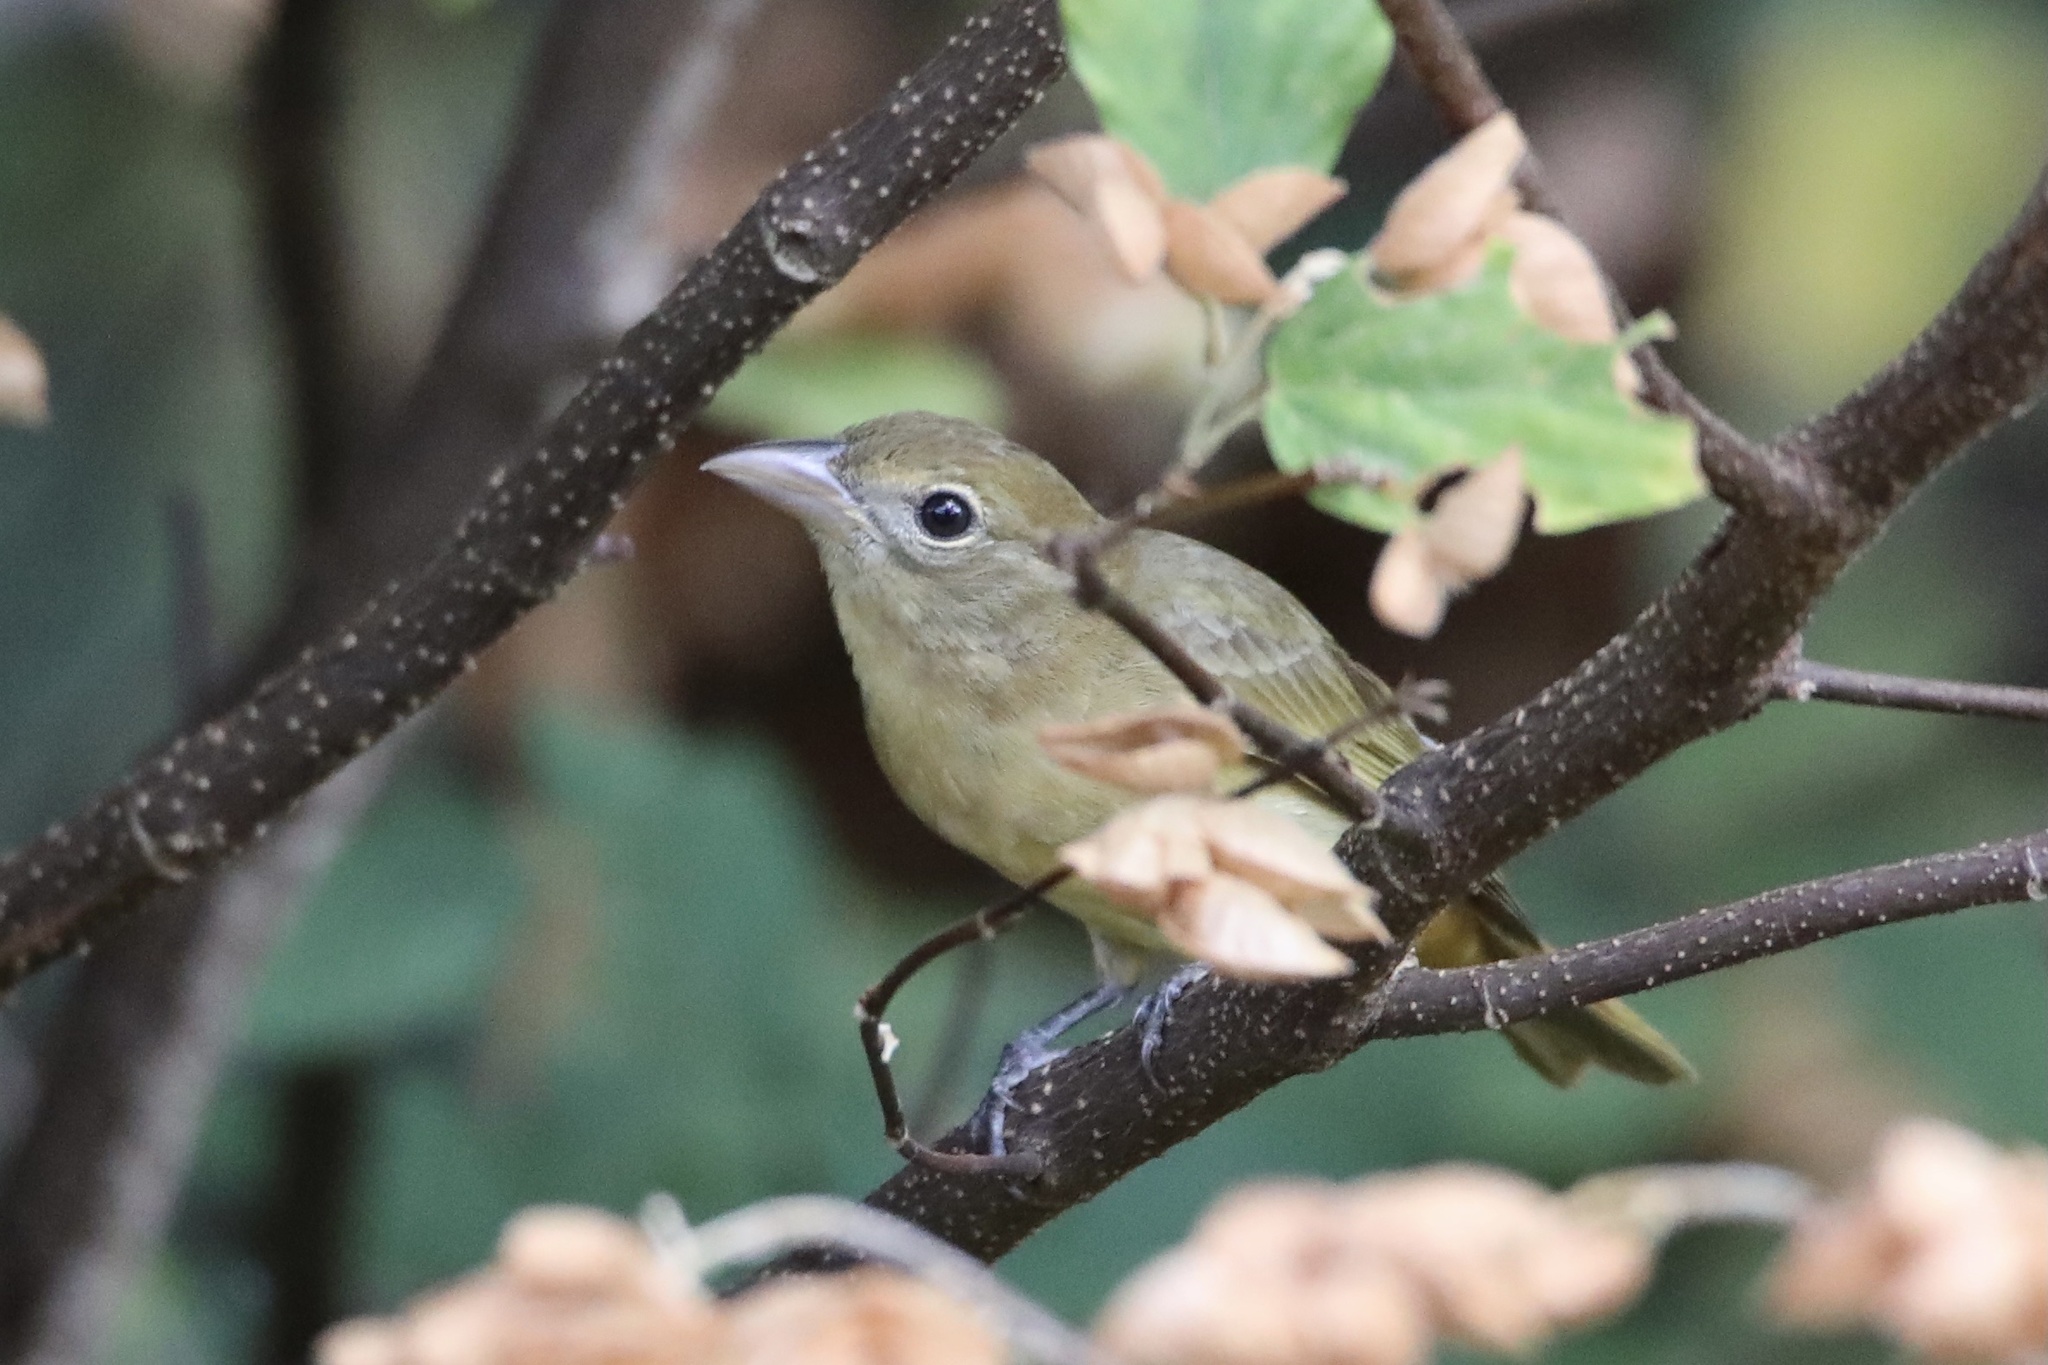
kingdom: Animalia
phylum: Chordata
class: Aves
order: Passeriformes
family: Cardinalidae
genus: Piranga
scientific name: Piranga rubra
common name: Summer tanager
